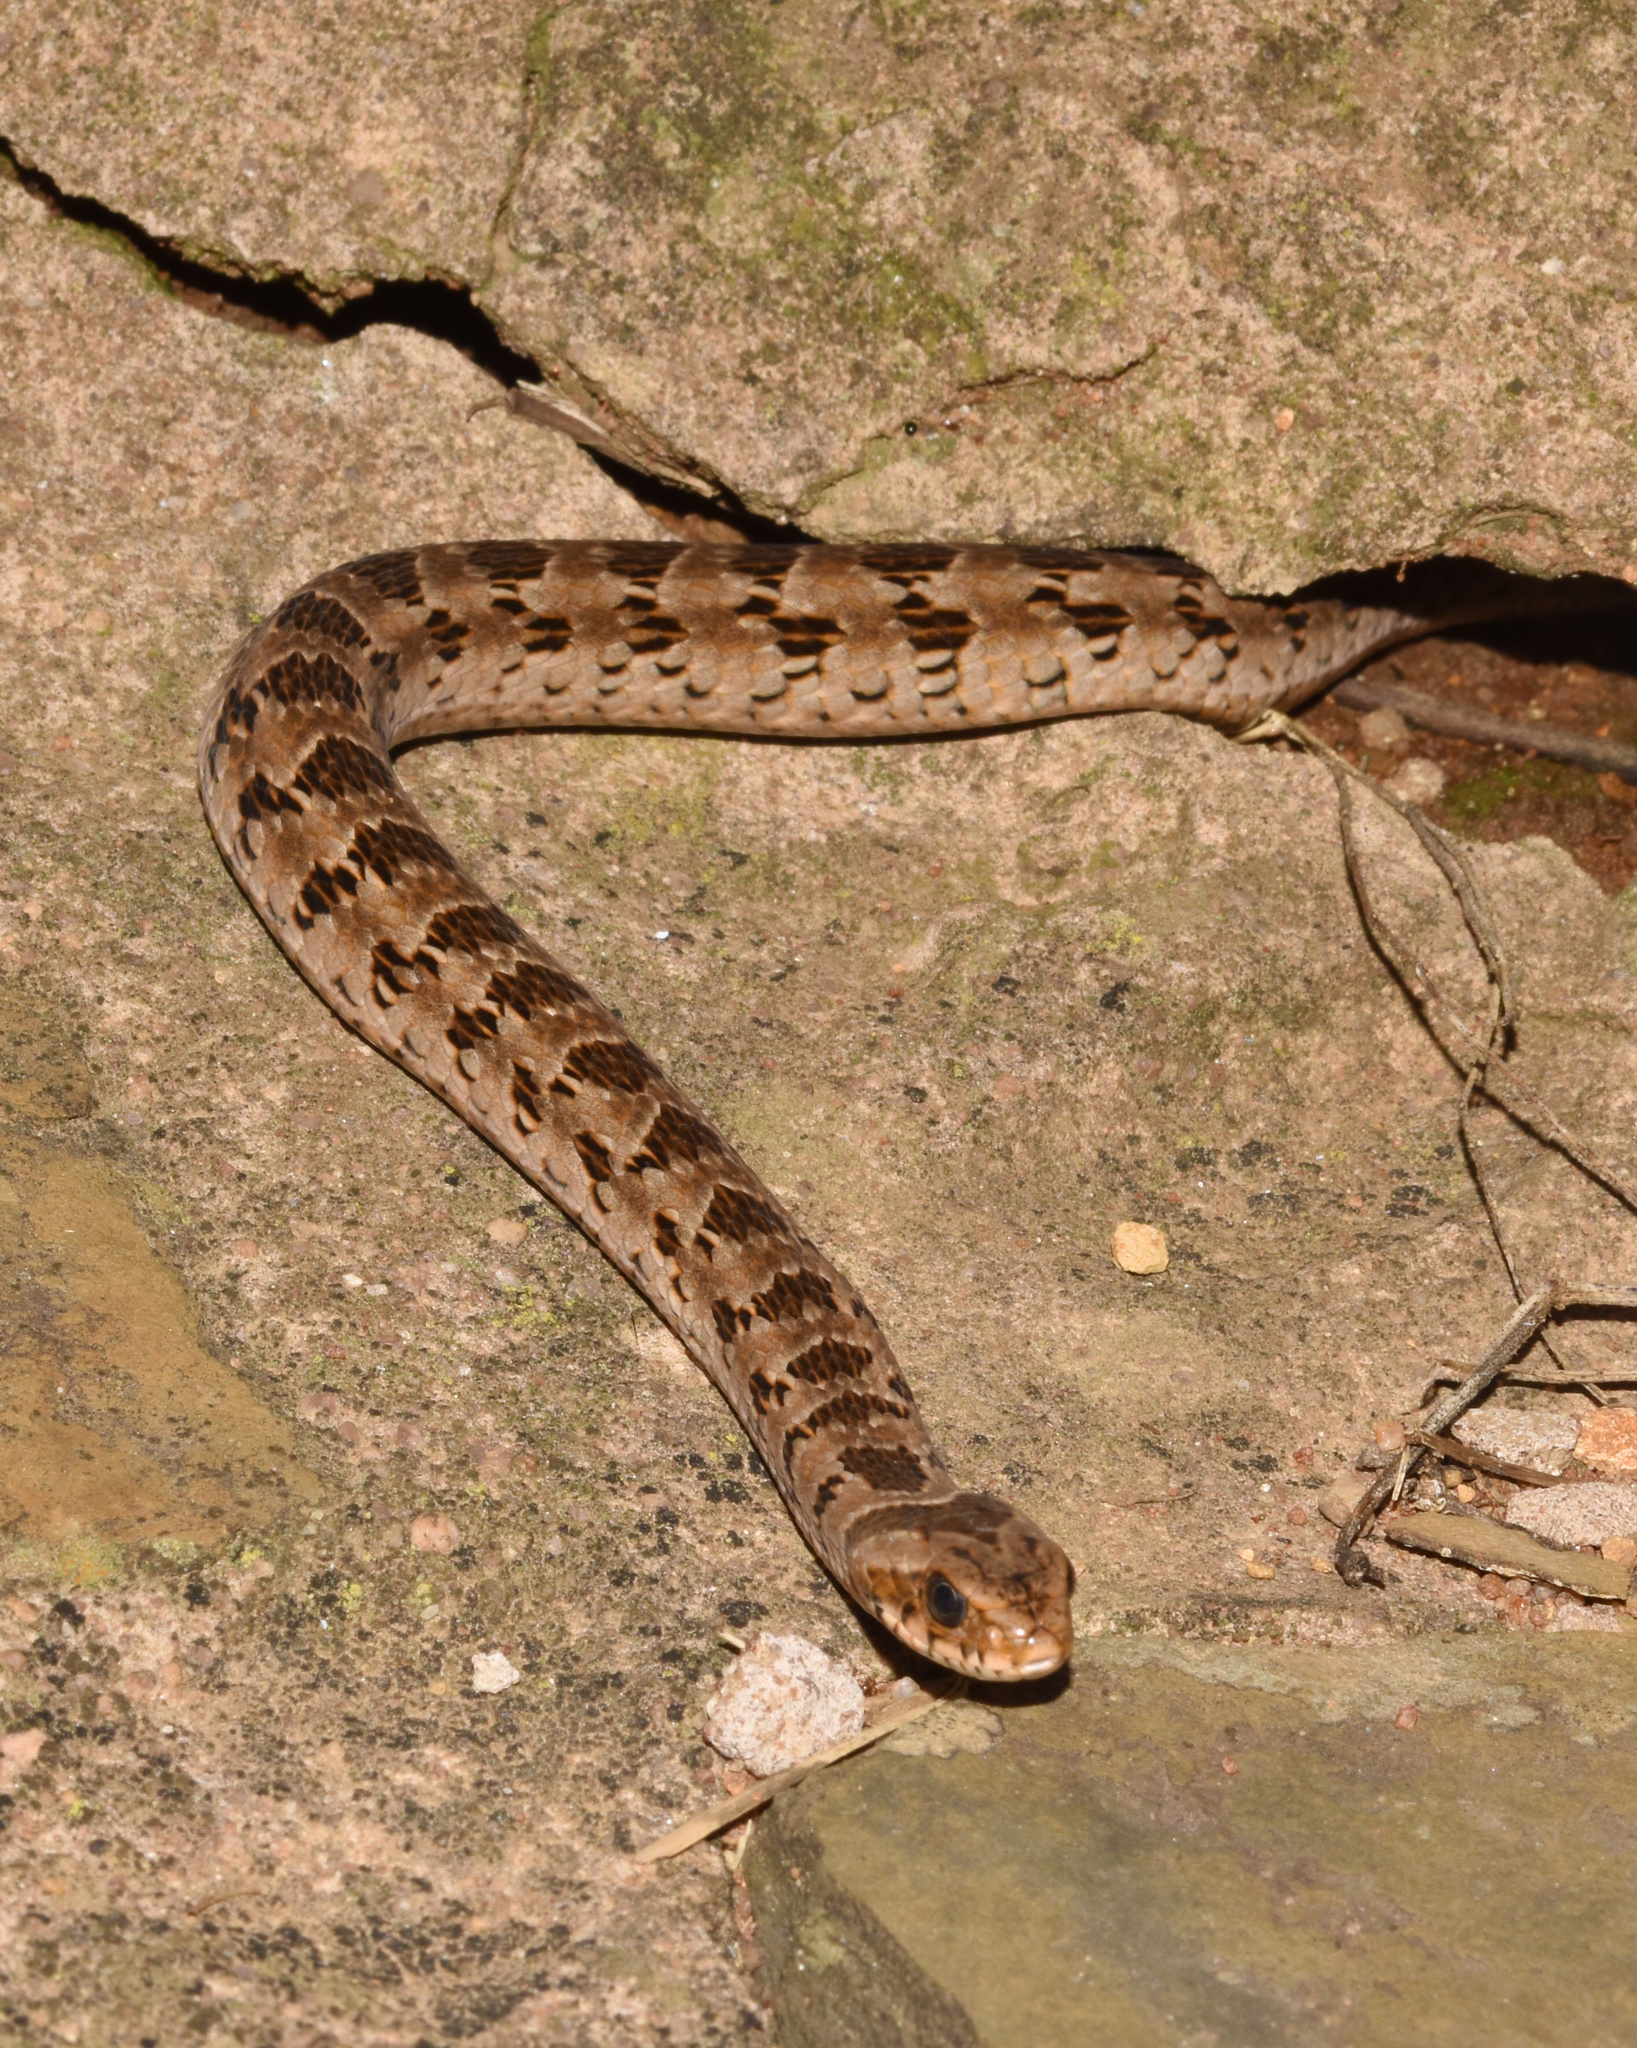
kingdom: Animalia
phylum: Chordata
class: Squamata
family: Viperidae
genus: Causus
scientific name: Causus rhombeatus
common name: Common night adder
